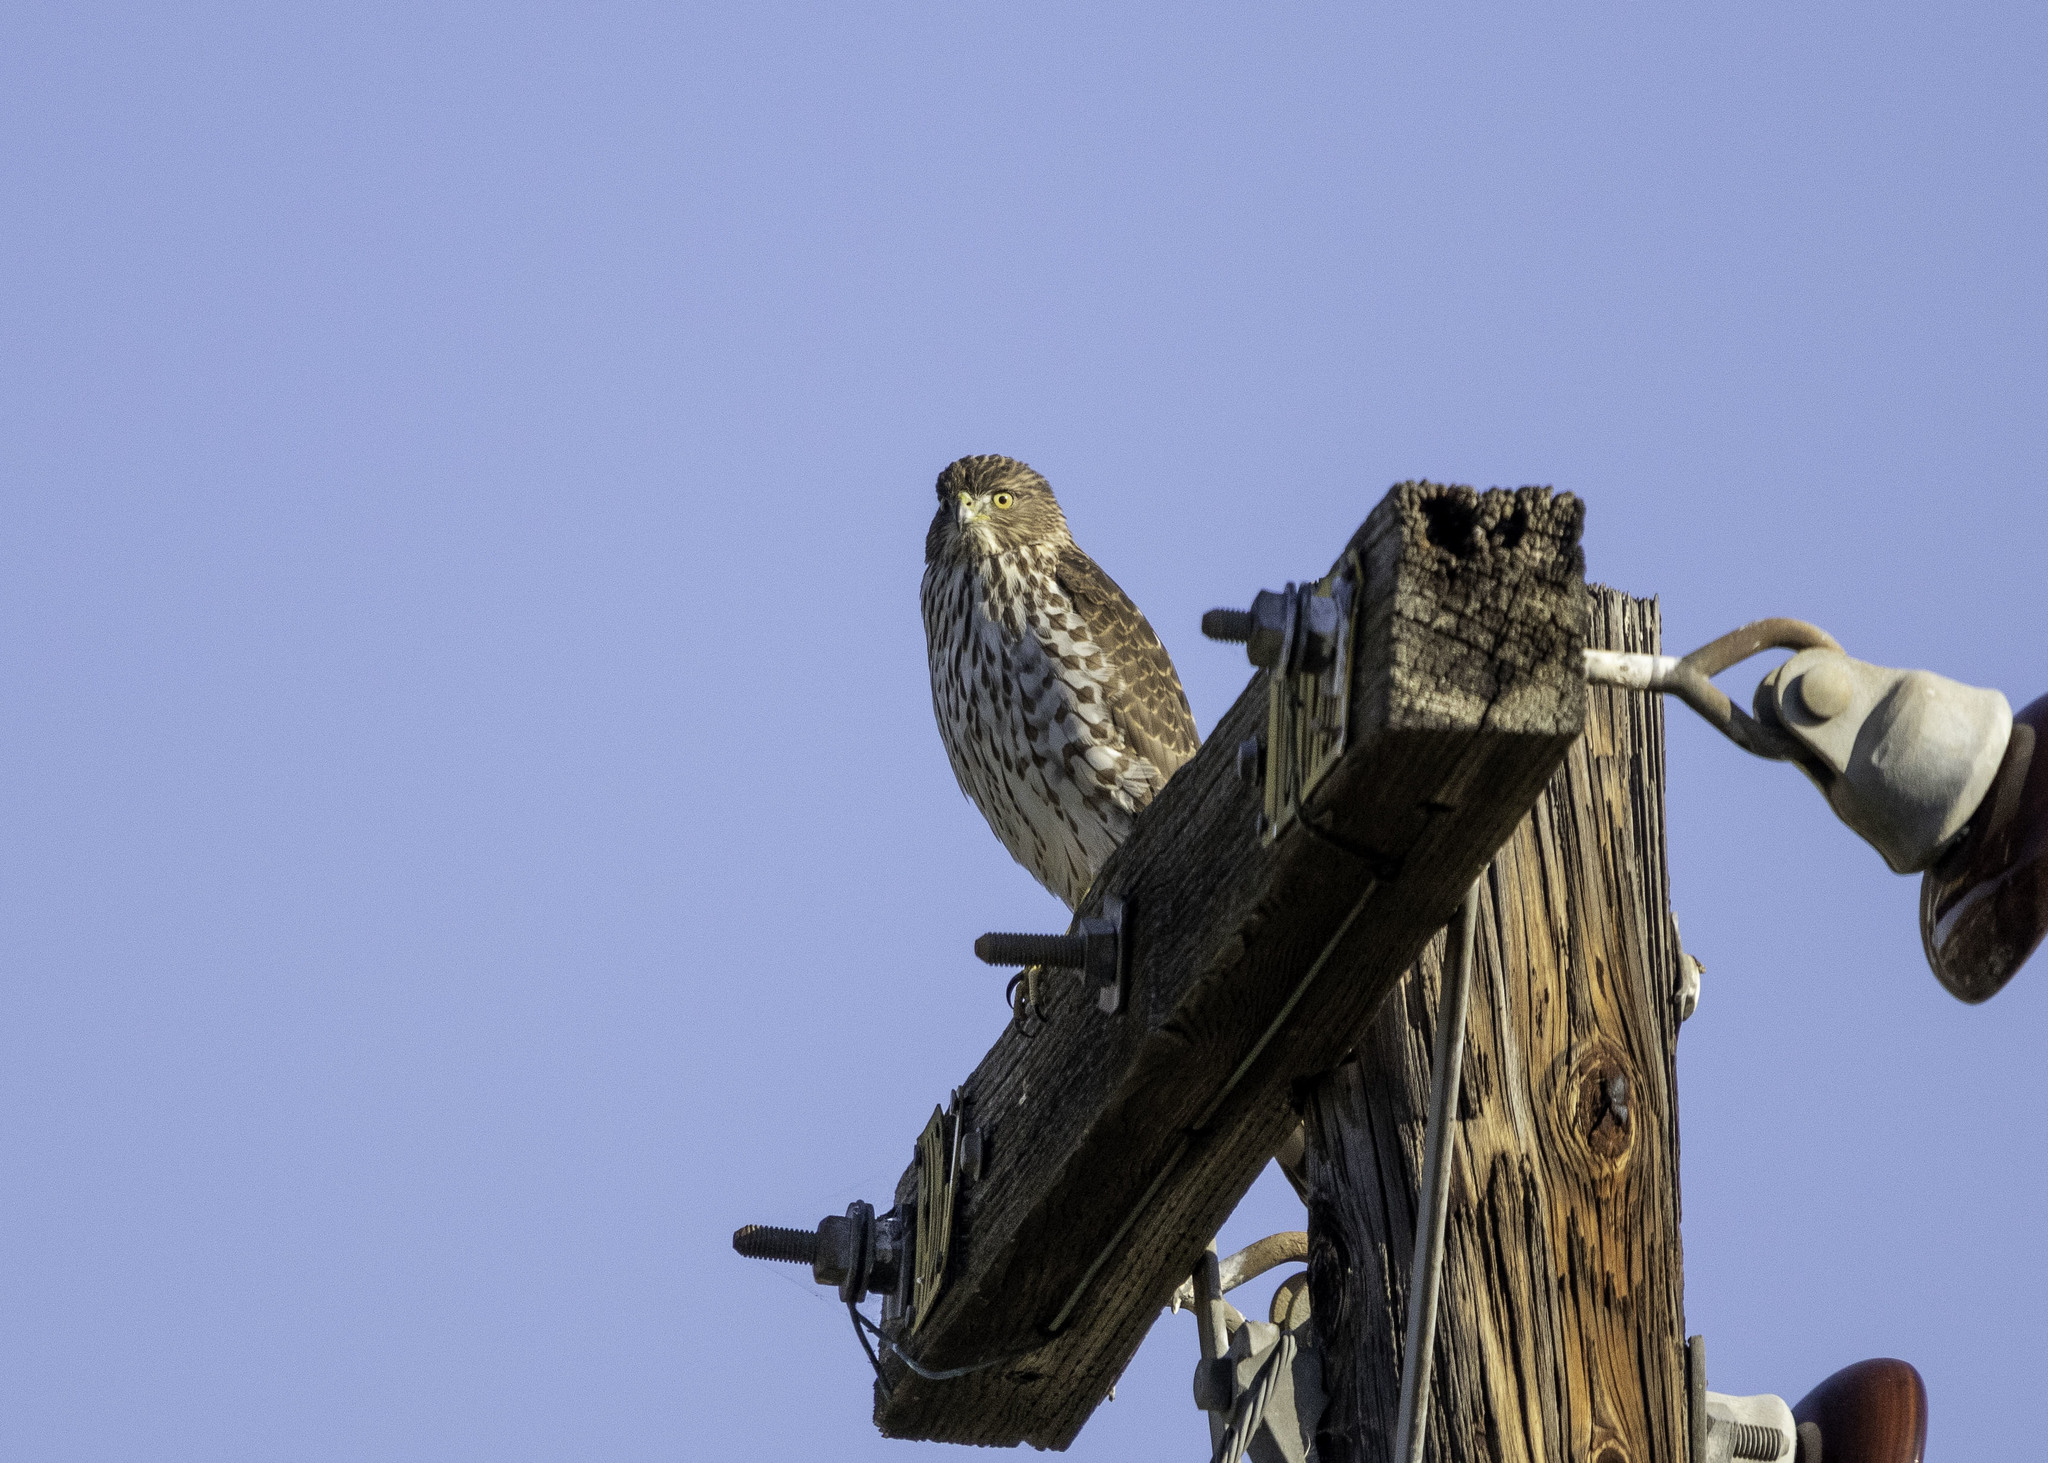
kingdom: Animalia
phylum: Chordata
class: Aves
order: Accipitriformes
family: Accipitridae
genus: Accipiter
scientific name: Accipiter cooperii
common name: Cooper's hawk
